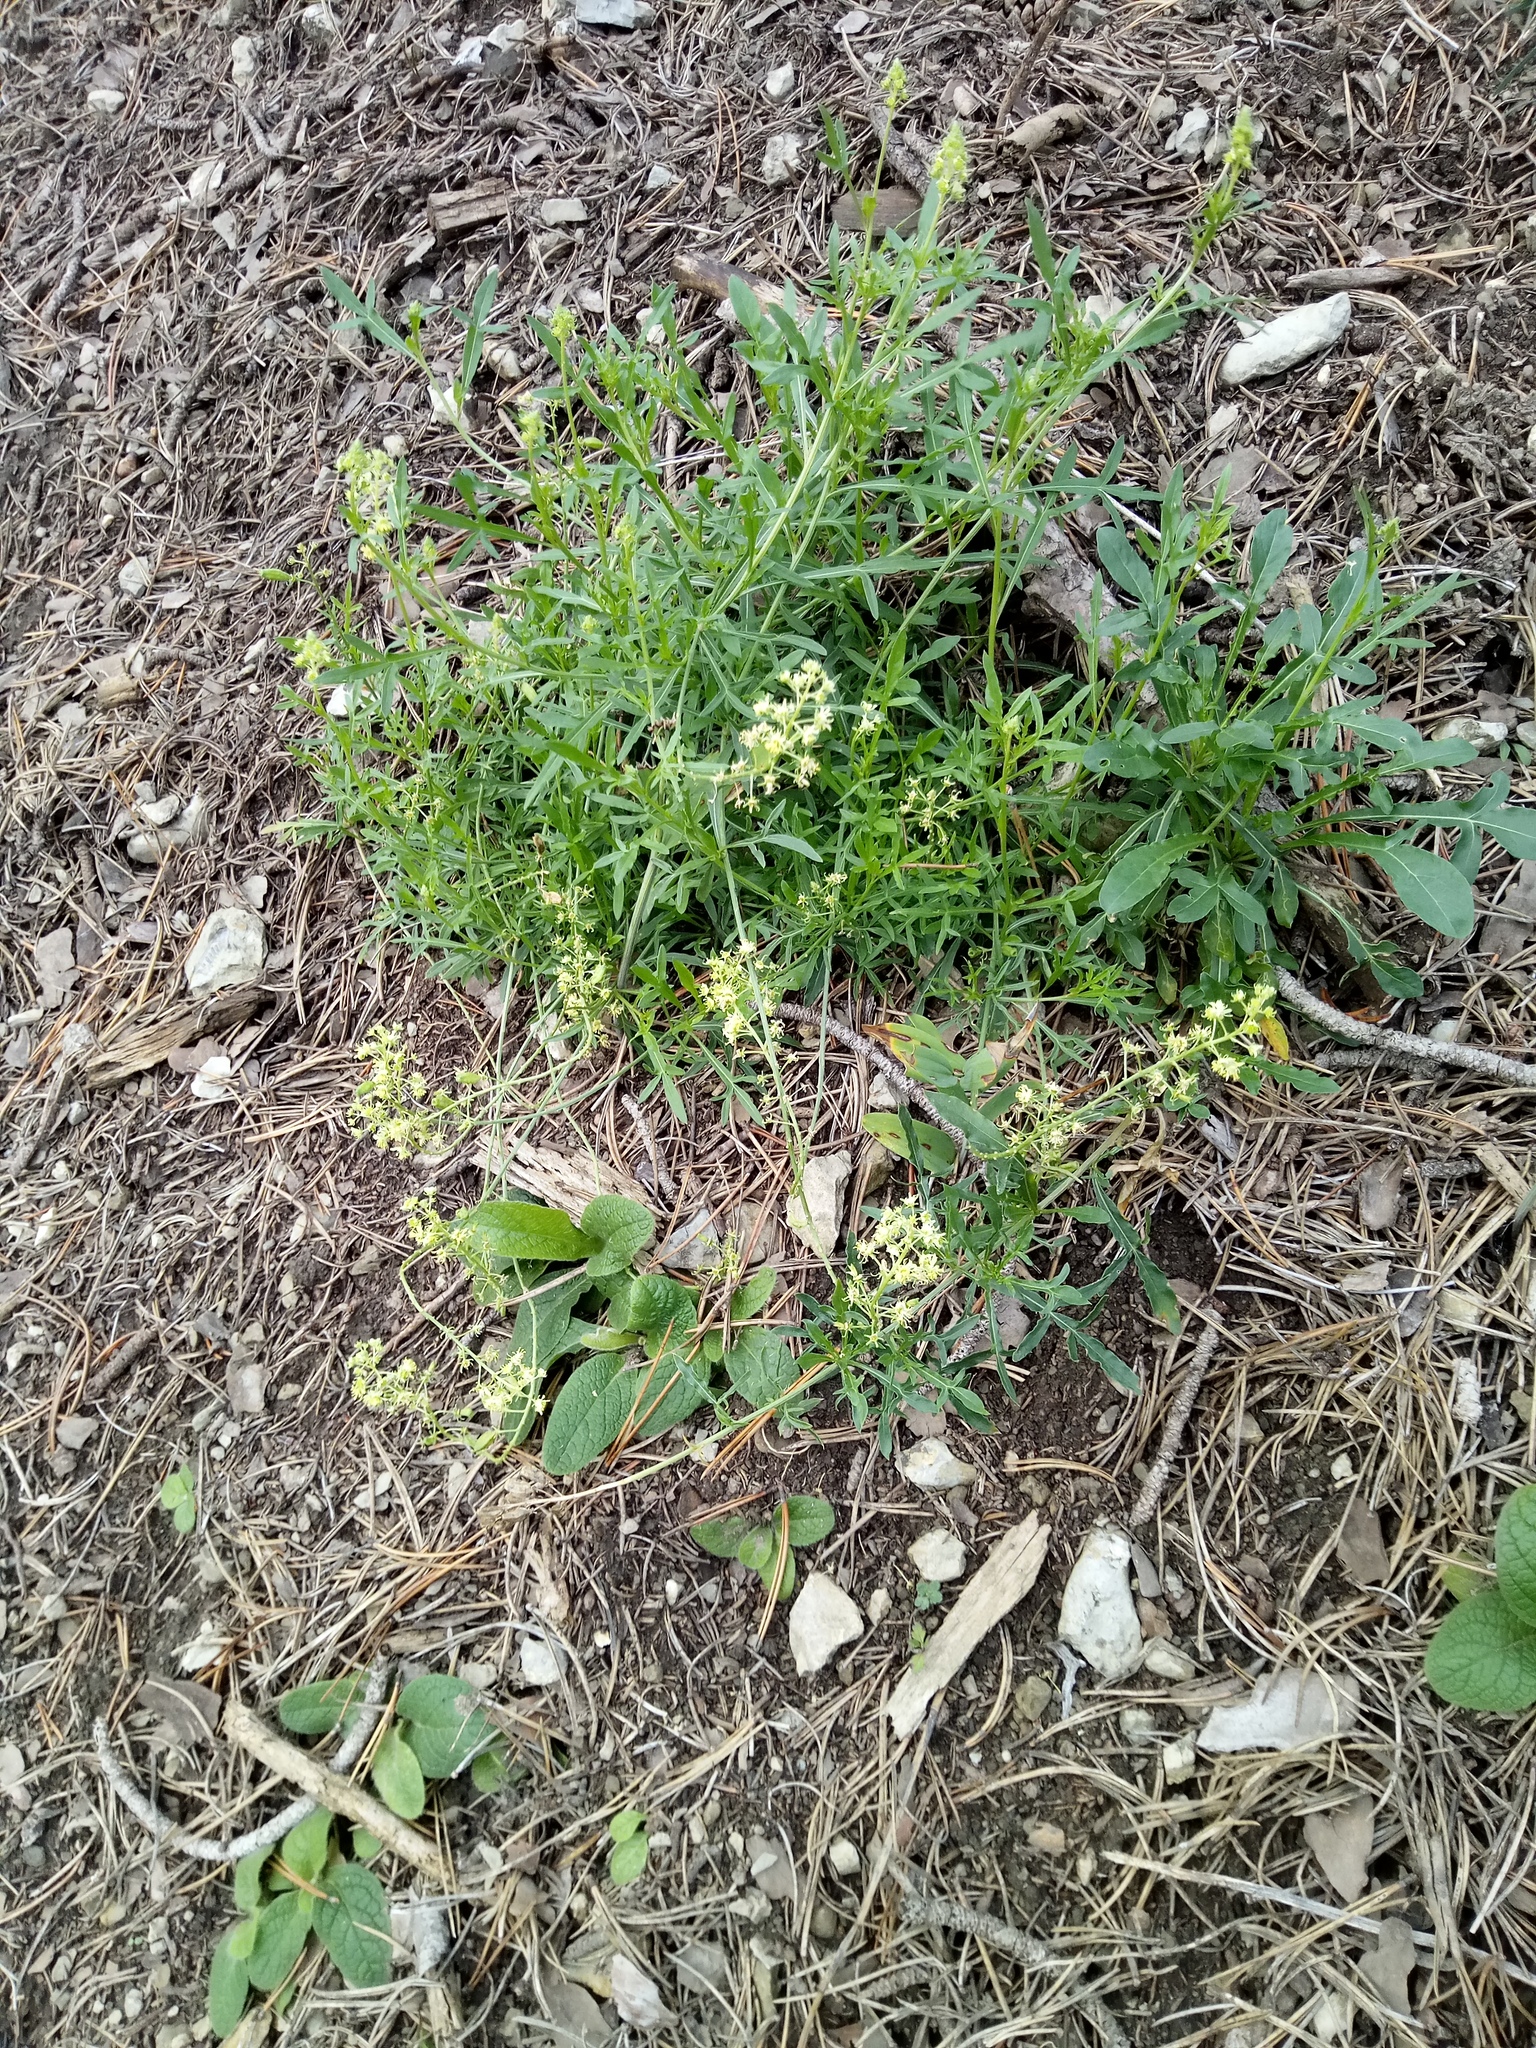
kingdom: Plantae
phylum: Tracheophyta
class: Magnoliopsida
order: Brassicales
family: Resedaceae
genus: Reseda
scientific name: Reseda lutea
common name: Wild mignonette
